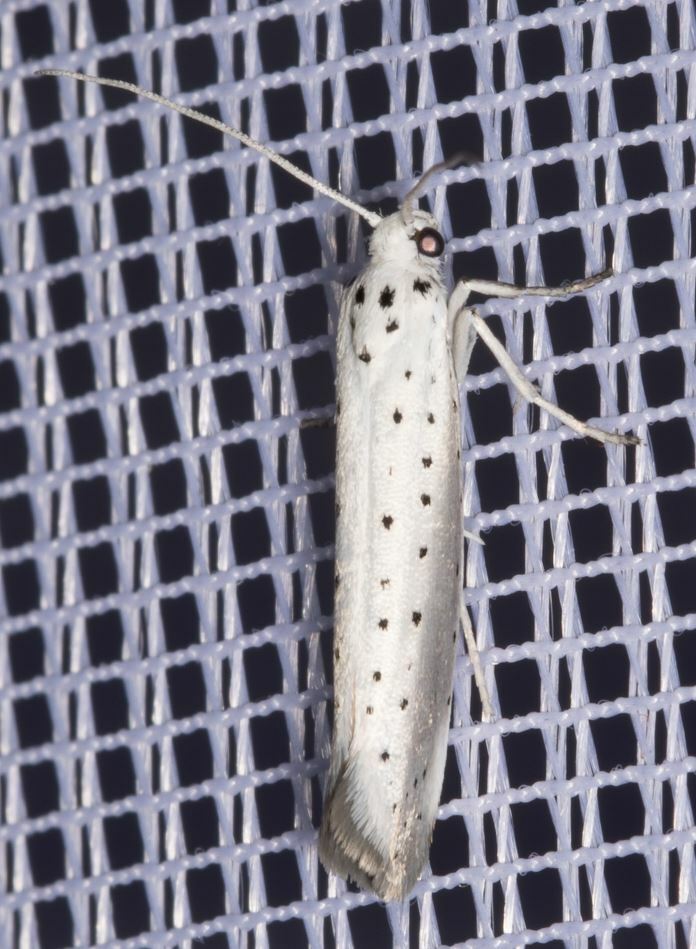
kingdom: Animalia
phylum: Arthropoda
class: Insecta
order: Lepidoptera
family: Yponomeutidae
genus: Yponomeuta
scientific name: Yponomeuta padella
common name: Orchard ermine
